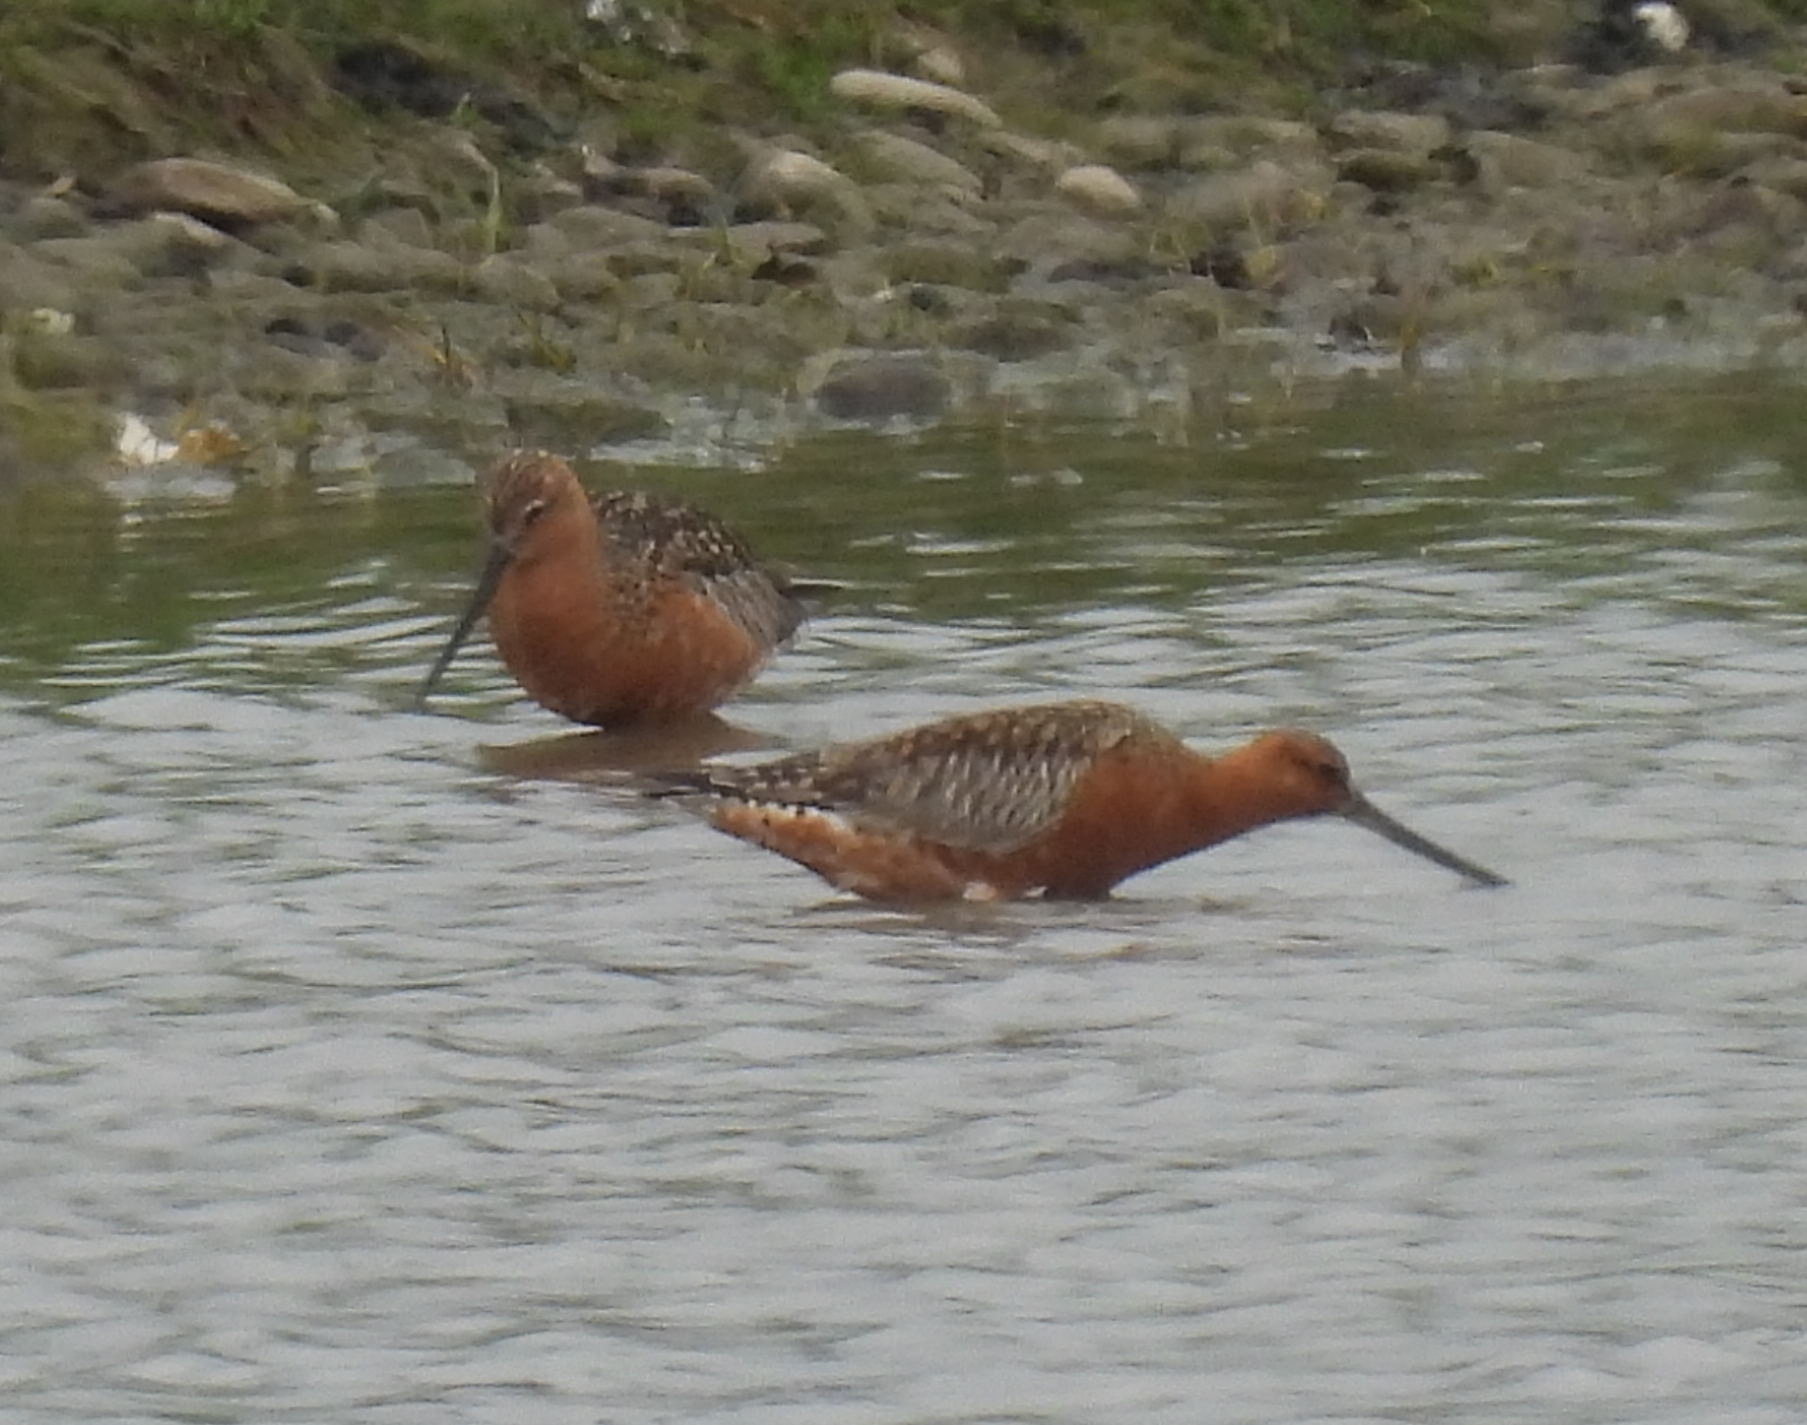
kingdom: Animalia
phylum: Chordata
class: Aves
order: Charadriiformes
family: Scolopacidae
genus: Limosa
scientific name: Limosa lapponica
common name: Bar-tailed godwit
